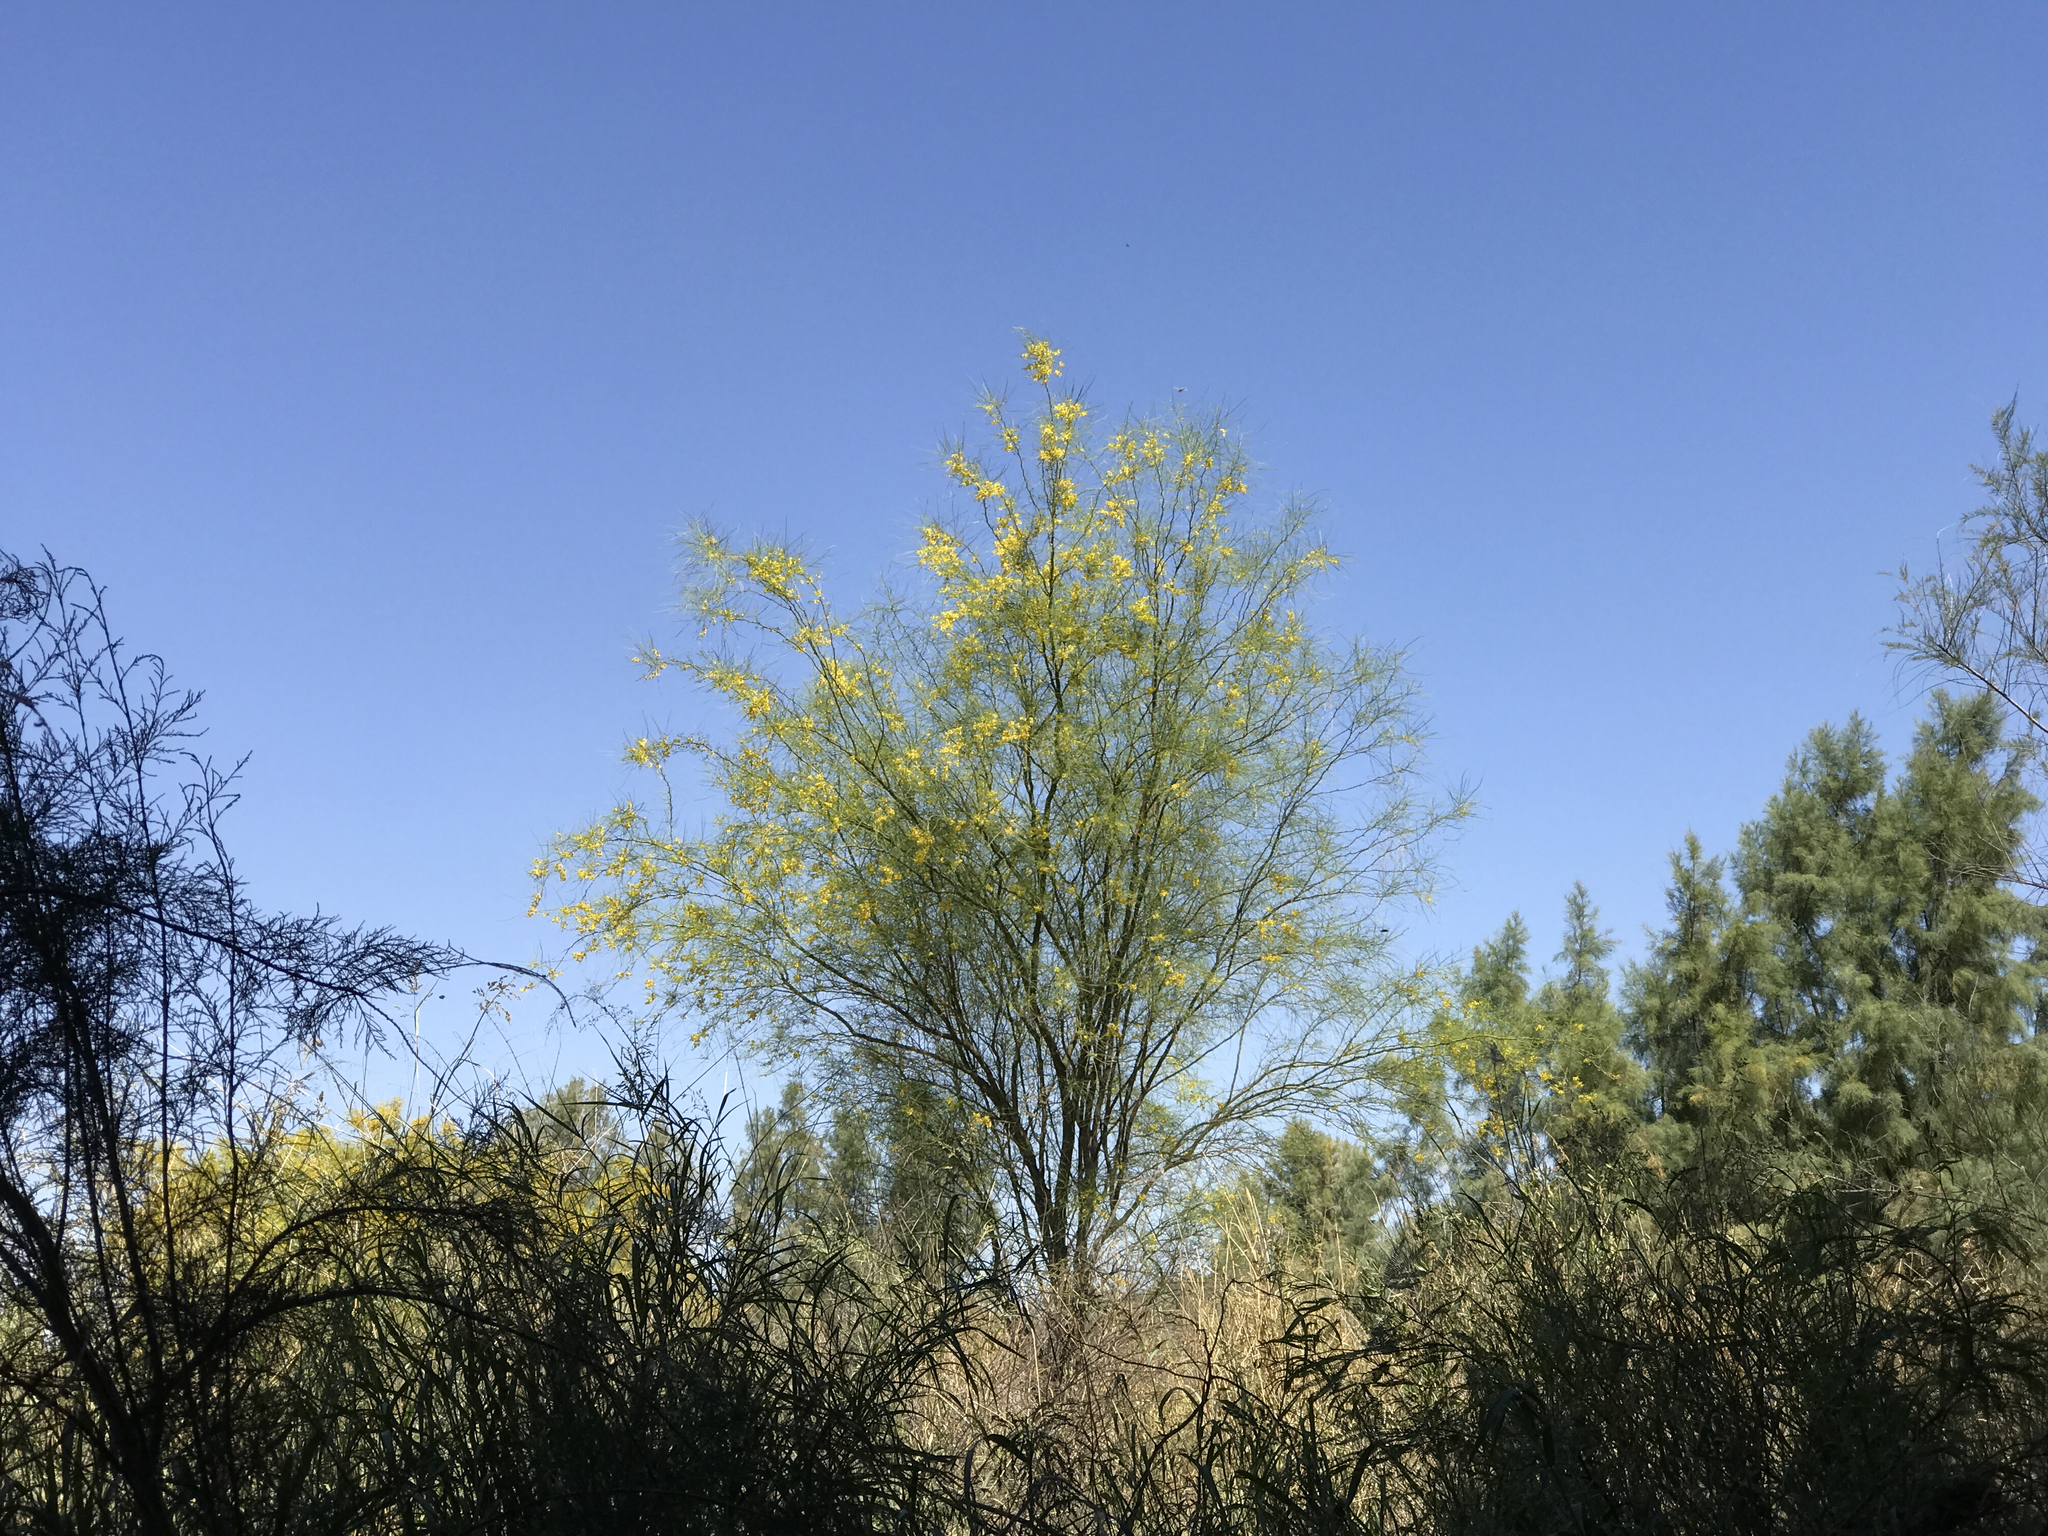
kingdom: Plantae
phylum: Tracheophyta
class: Magnoliopsida
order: Fabales
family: Fabaceae
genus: Parkinsonia
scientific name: Parkinsonia aculeata
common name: Jerusalem thorn
